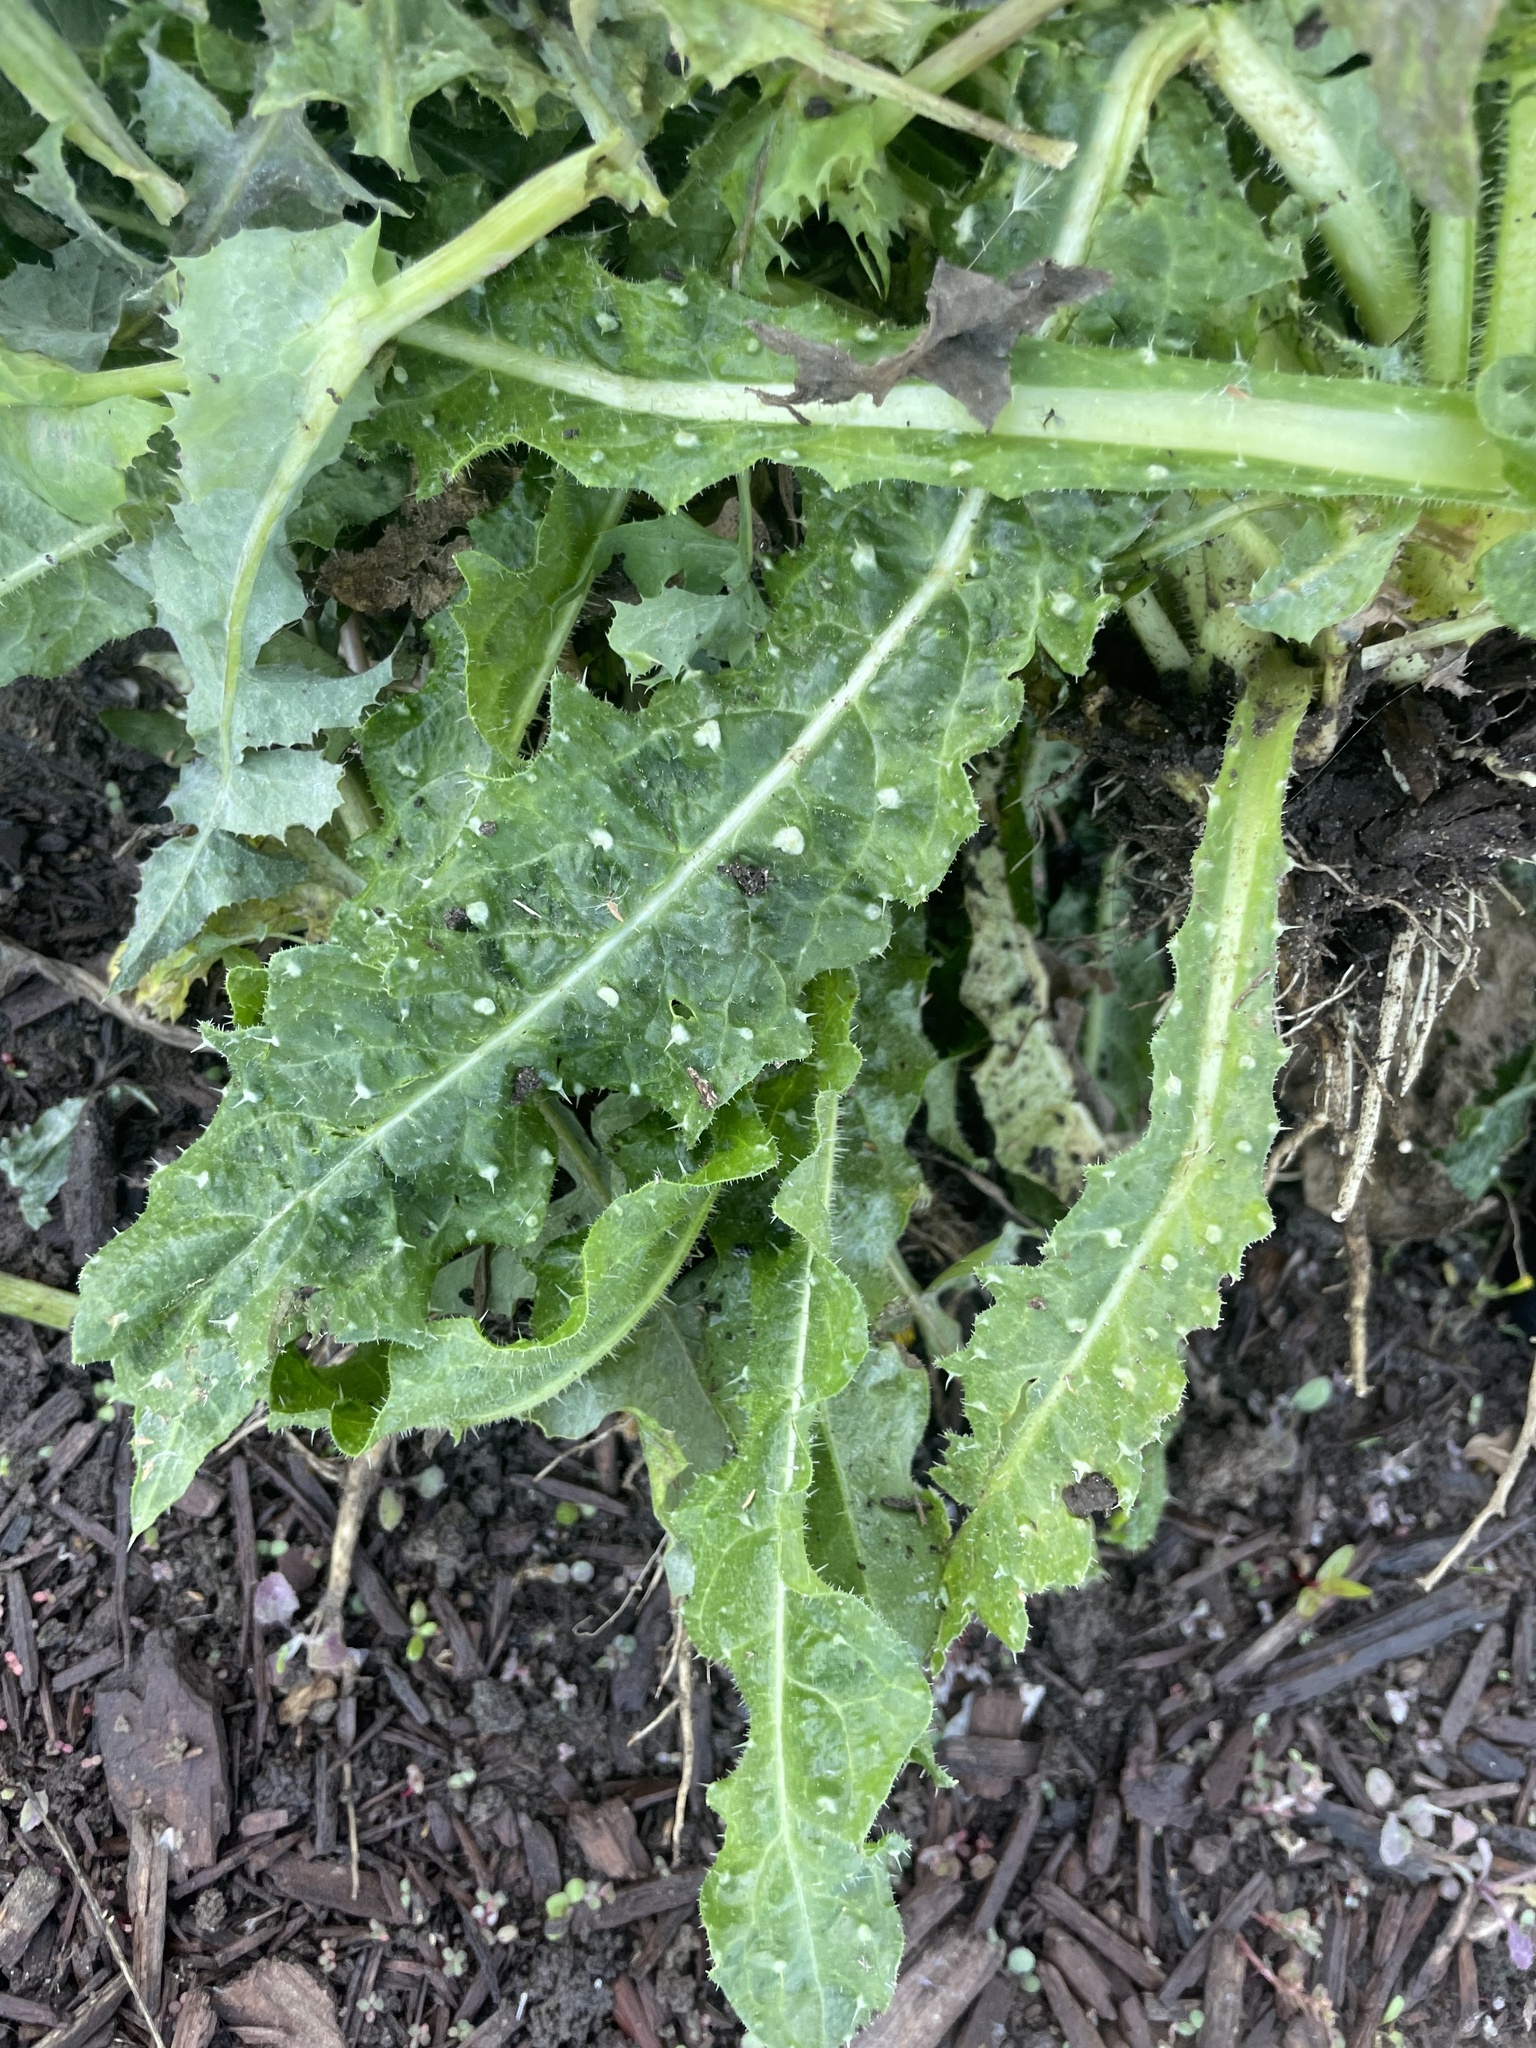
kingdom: Plantae
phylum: Tracheophyta
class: Magnoliopsida
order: Asterales
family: Asteraceae
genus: Helminthotheca
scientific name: Helminthotheca echioides
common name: Ox-tongue
